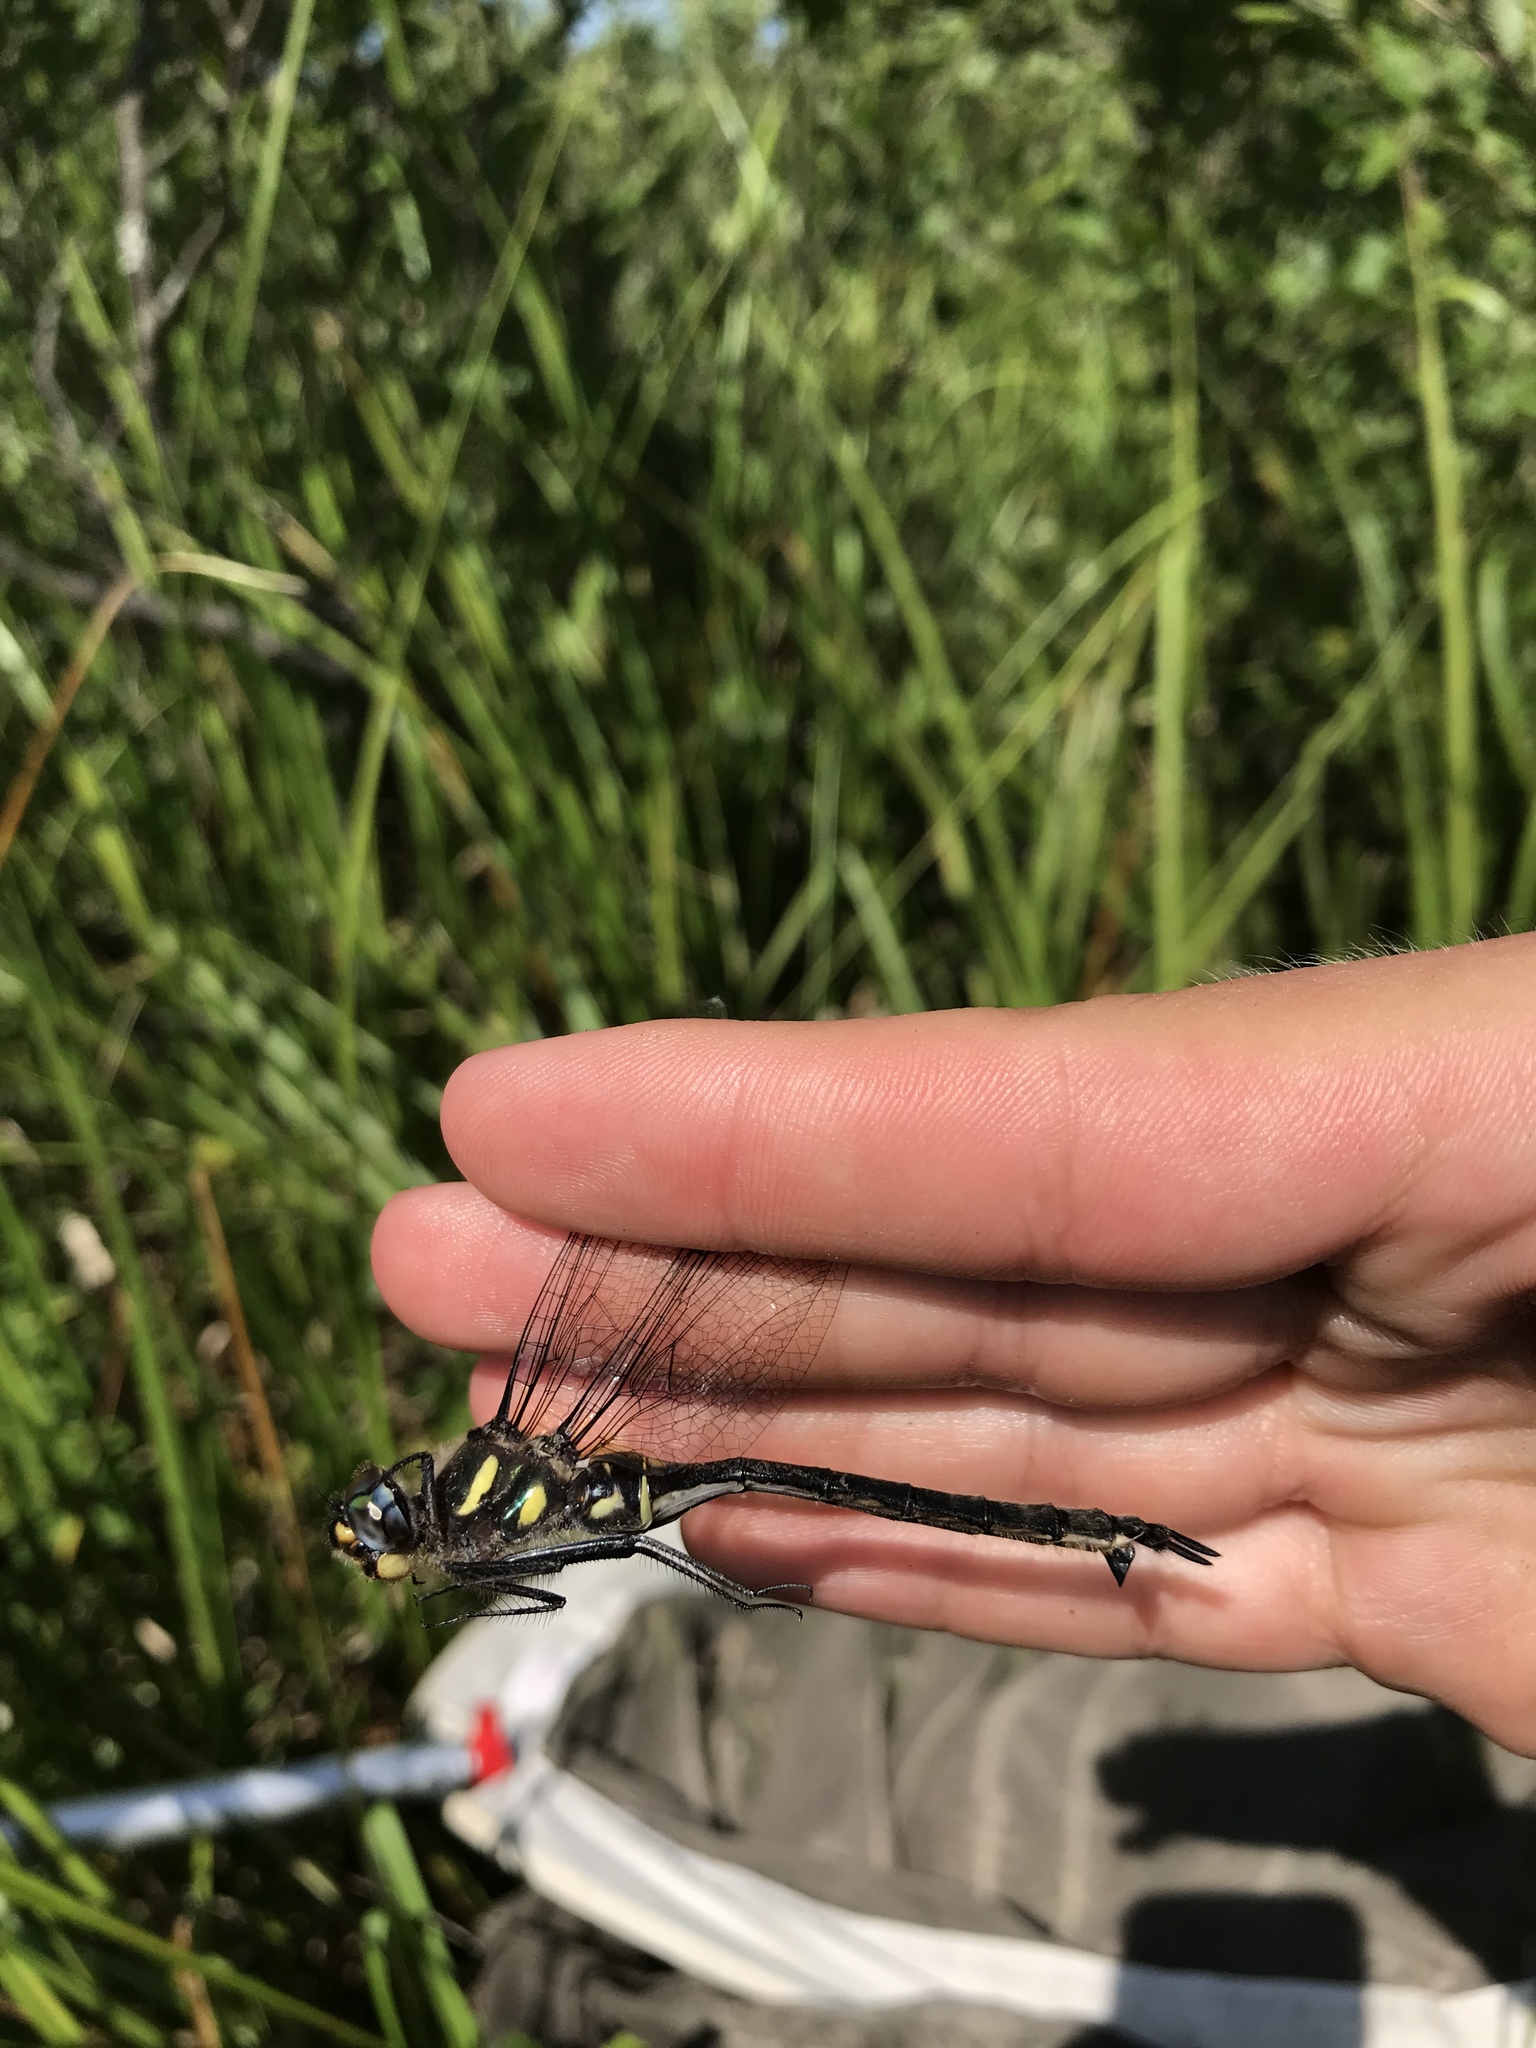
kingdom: Animalia
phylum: Arthropoda
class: Insecta
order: Odonata
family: Corduliidae
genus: Somatochlora
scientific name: Somatochlora elongata
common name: Ski-tipped emerald
